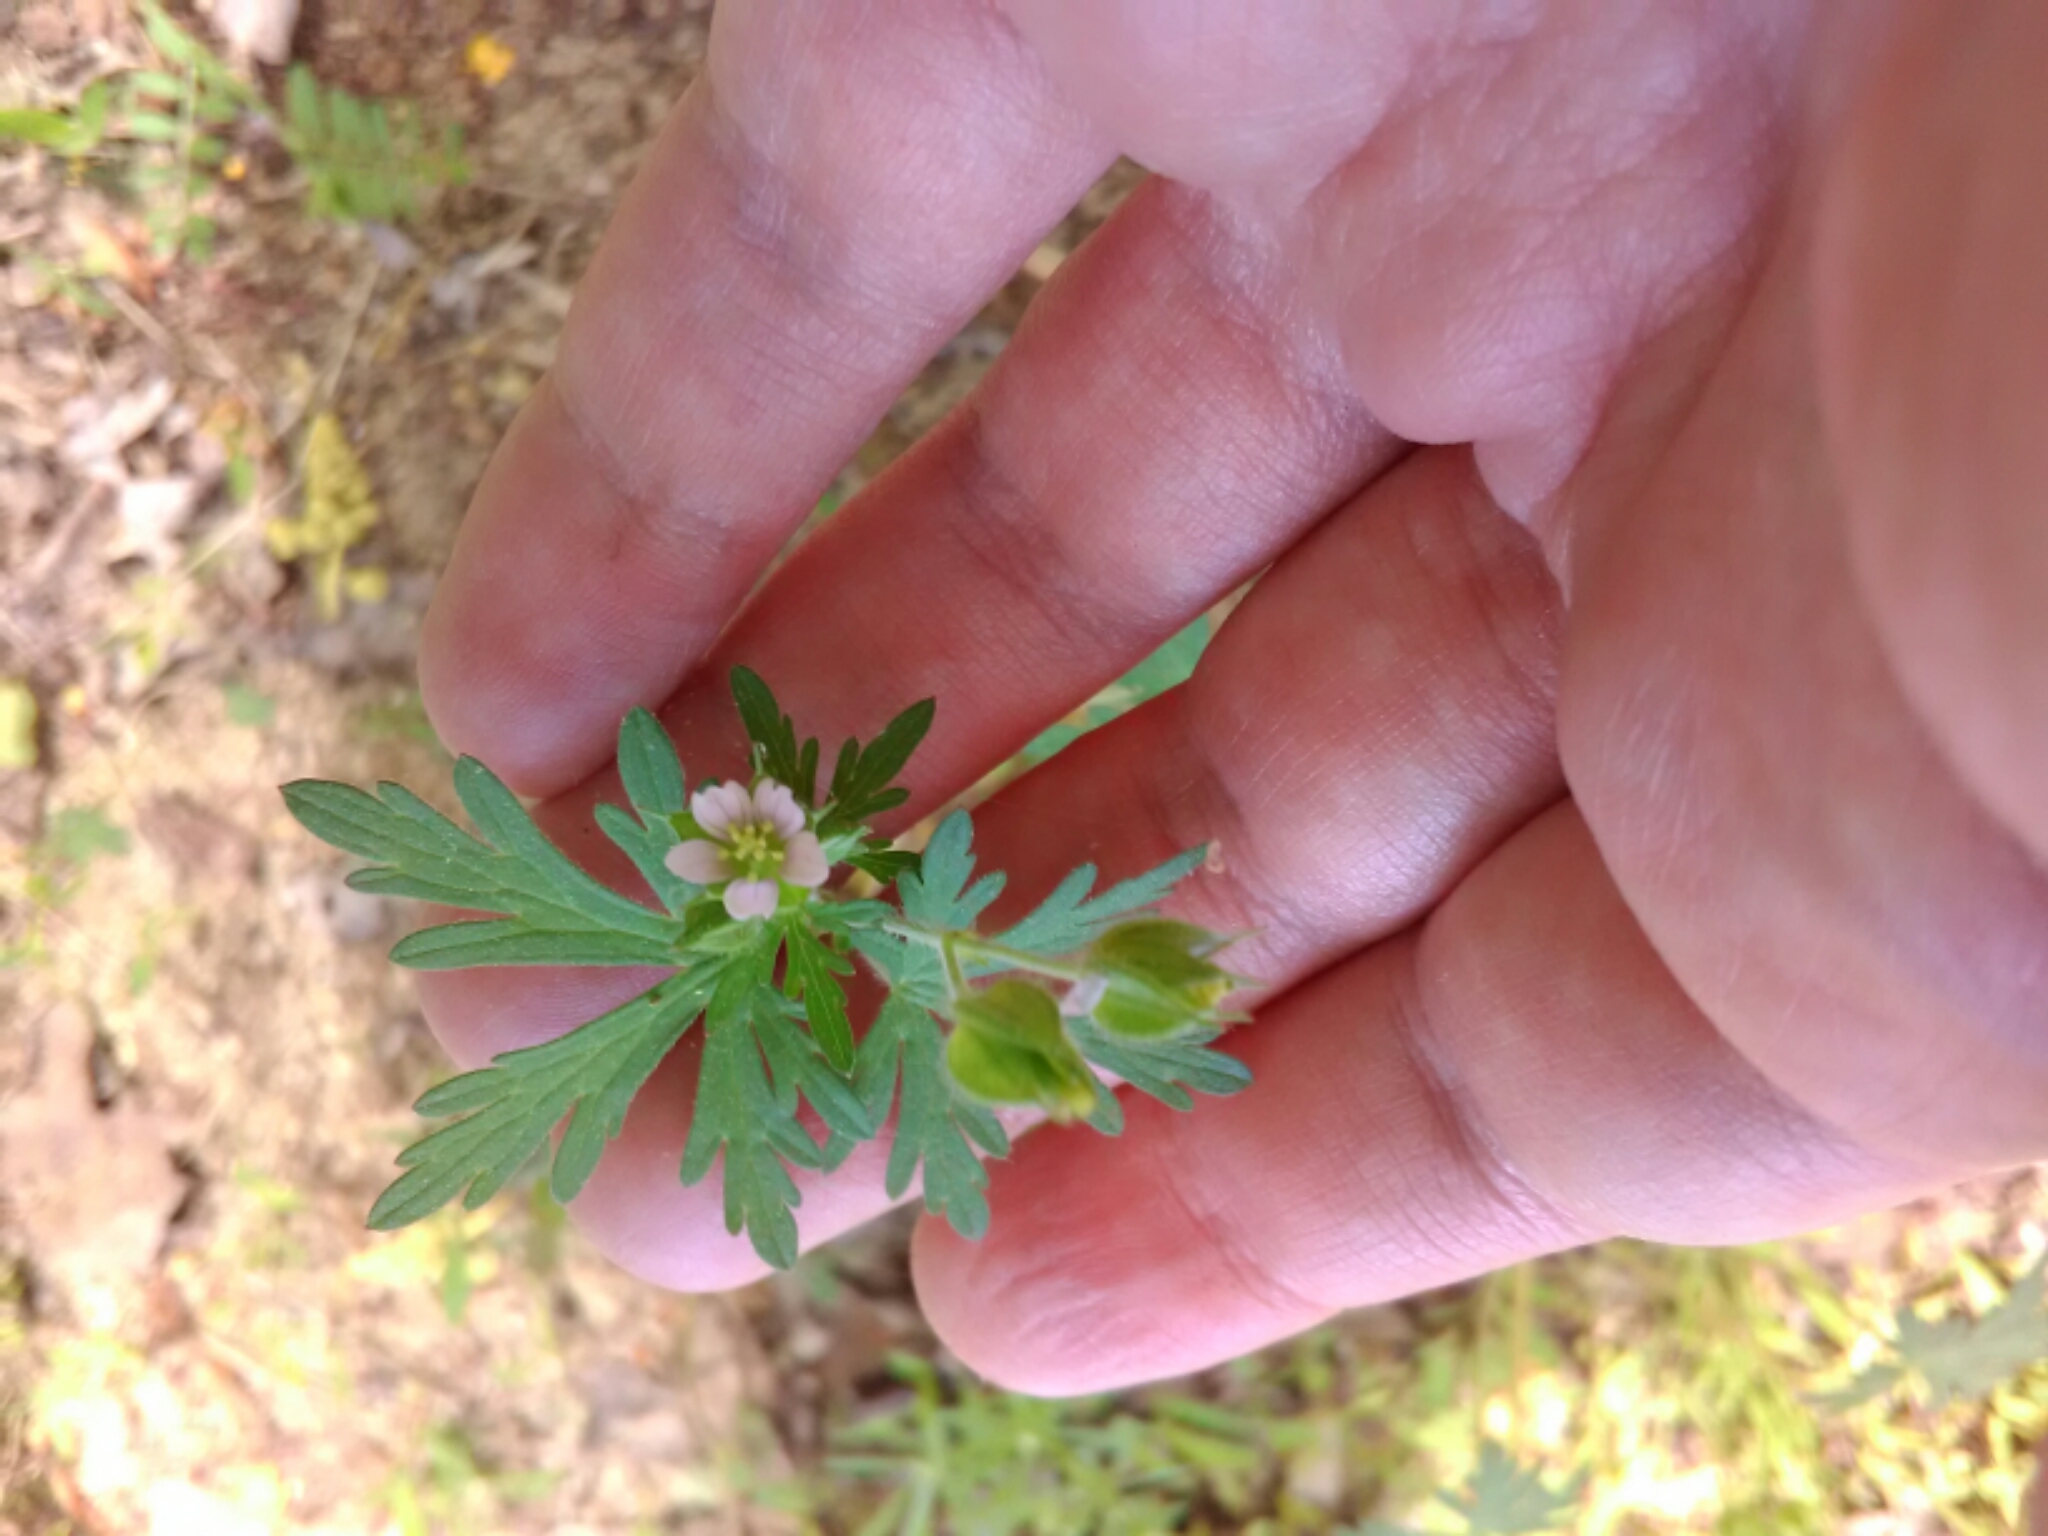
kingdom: Plantae
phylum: Tracheophyta
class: Magnoliopsida
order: Geraniales
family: Geraniaceae
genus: Geranium
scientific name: Geranium carolinianum
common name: Carolina crane's-bill
